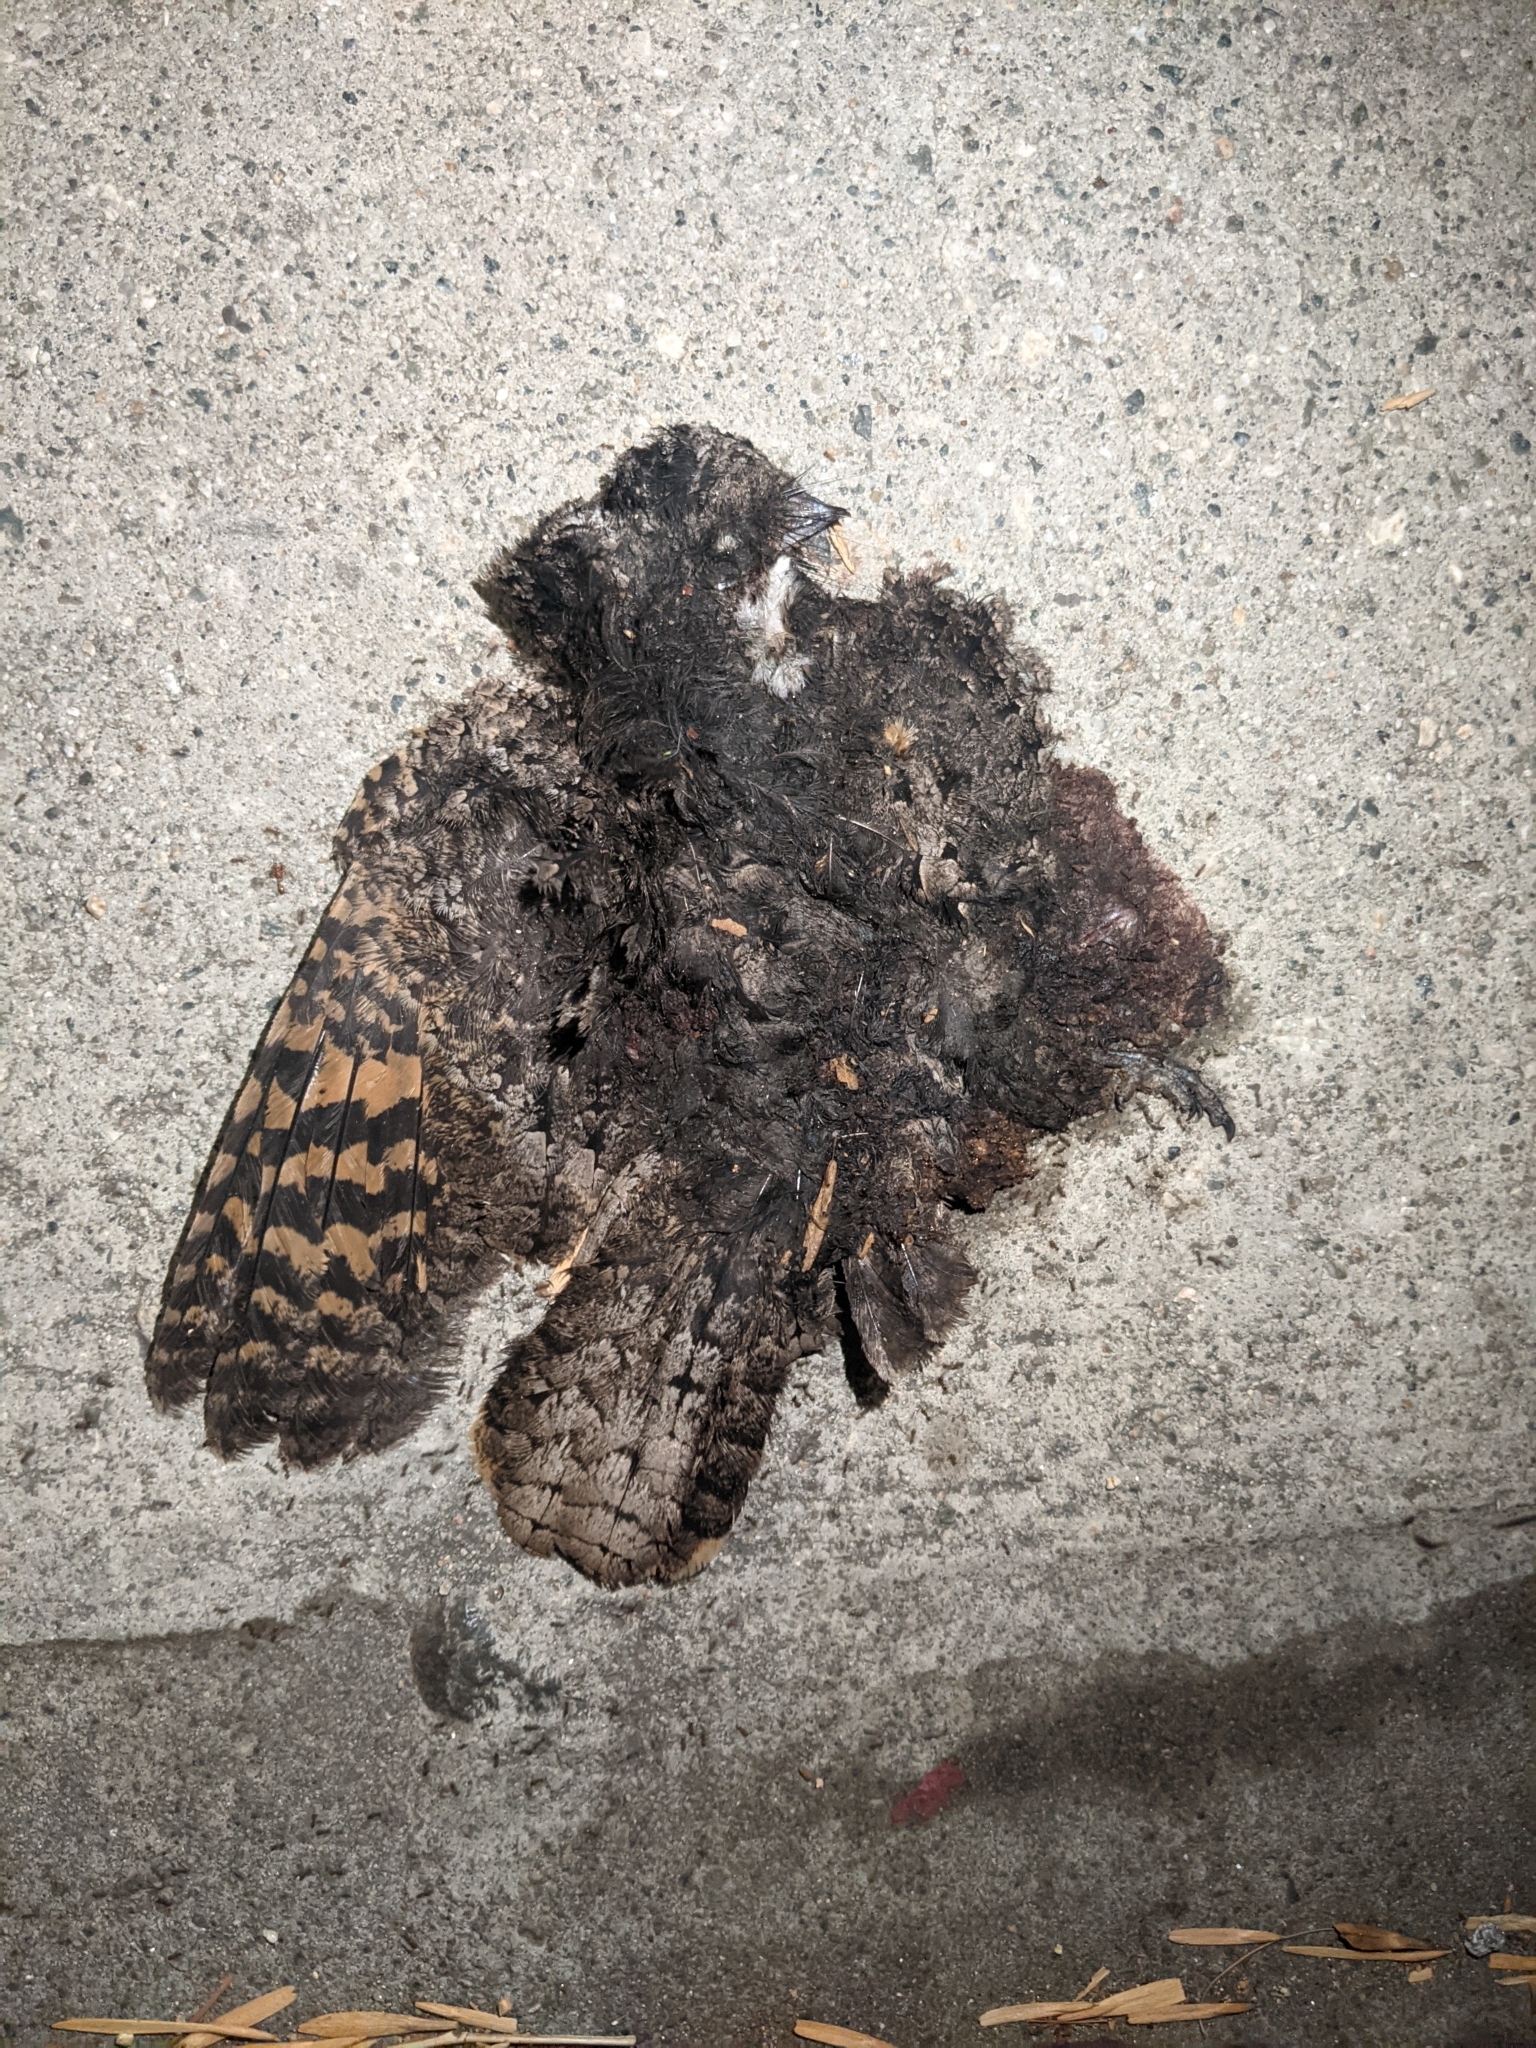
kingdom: Animalia
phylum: Chordata
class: Aves
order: Caprimulgiformes
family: Caprimulgidae
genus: Phalaenoptilus
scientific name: Phalaenoptilus nuttallii
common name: Common poorwill
